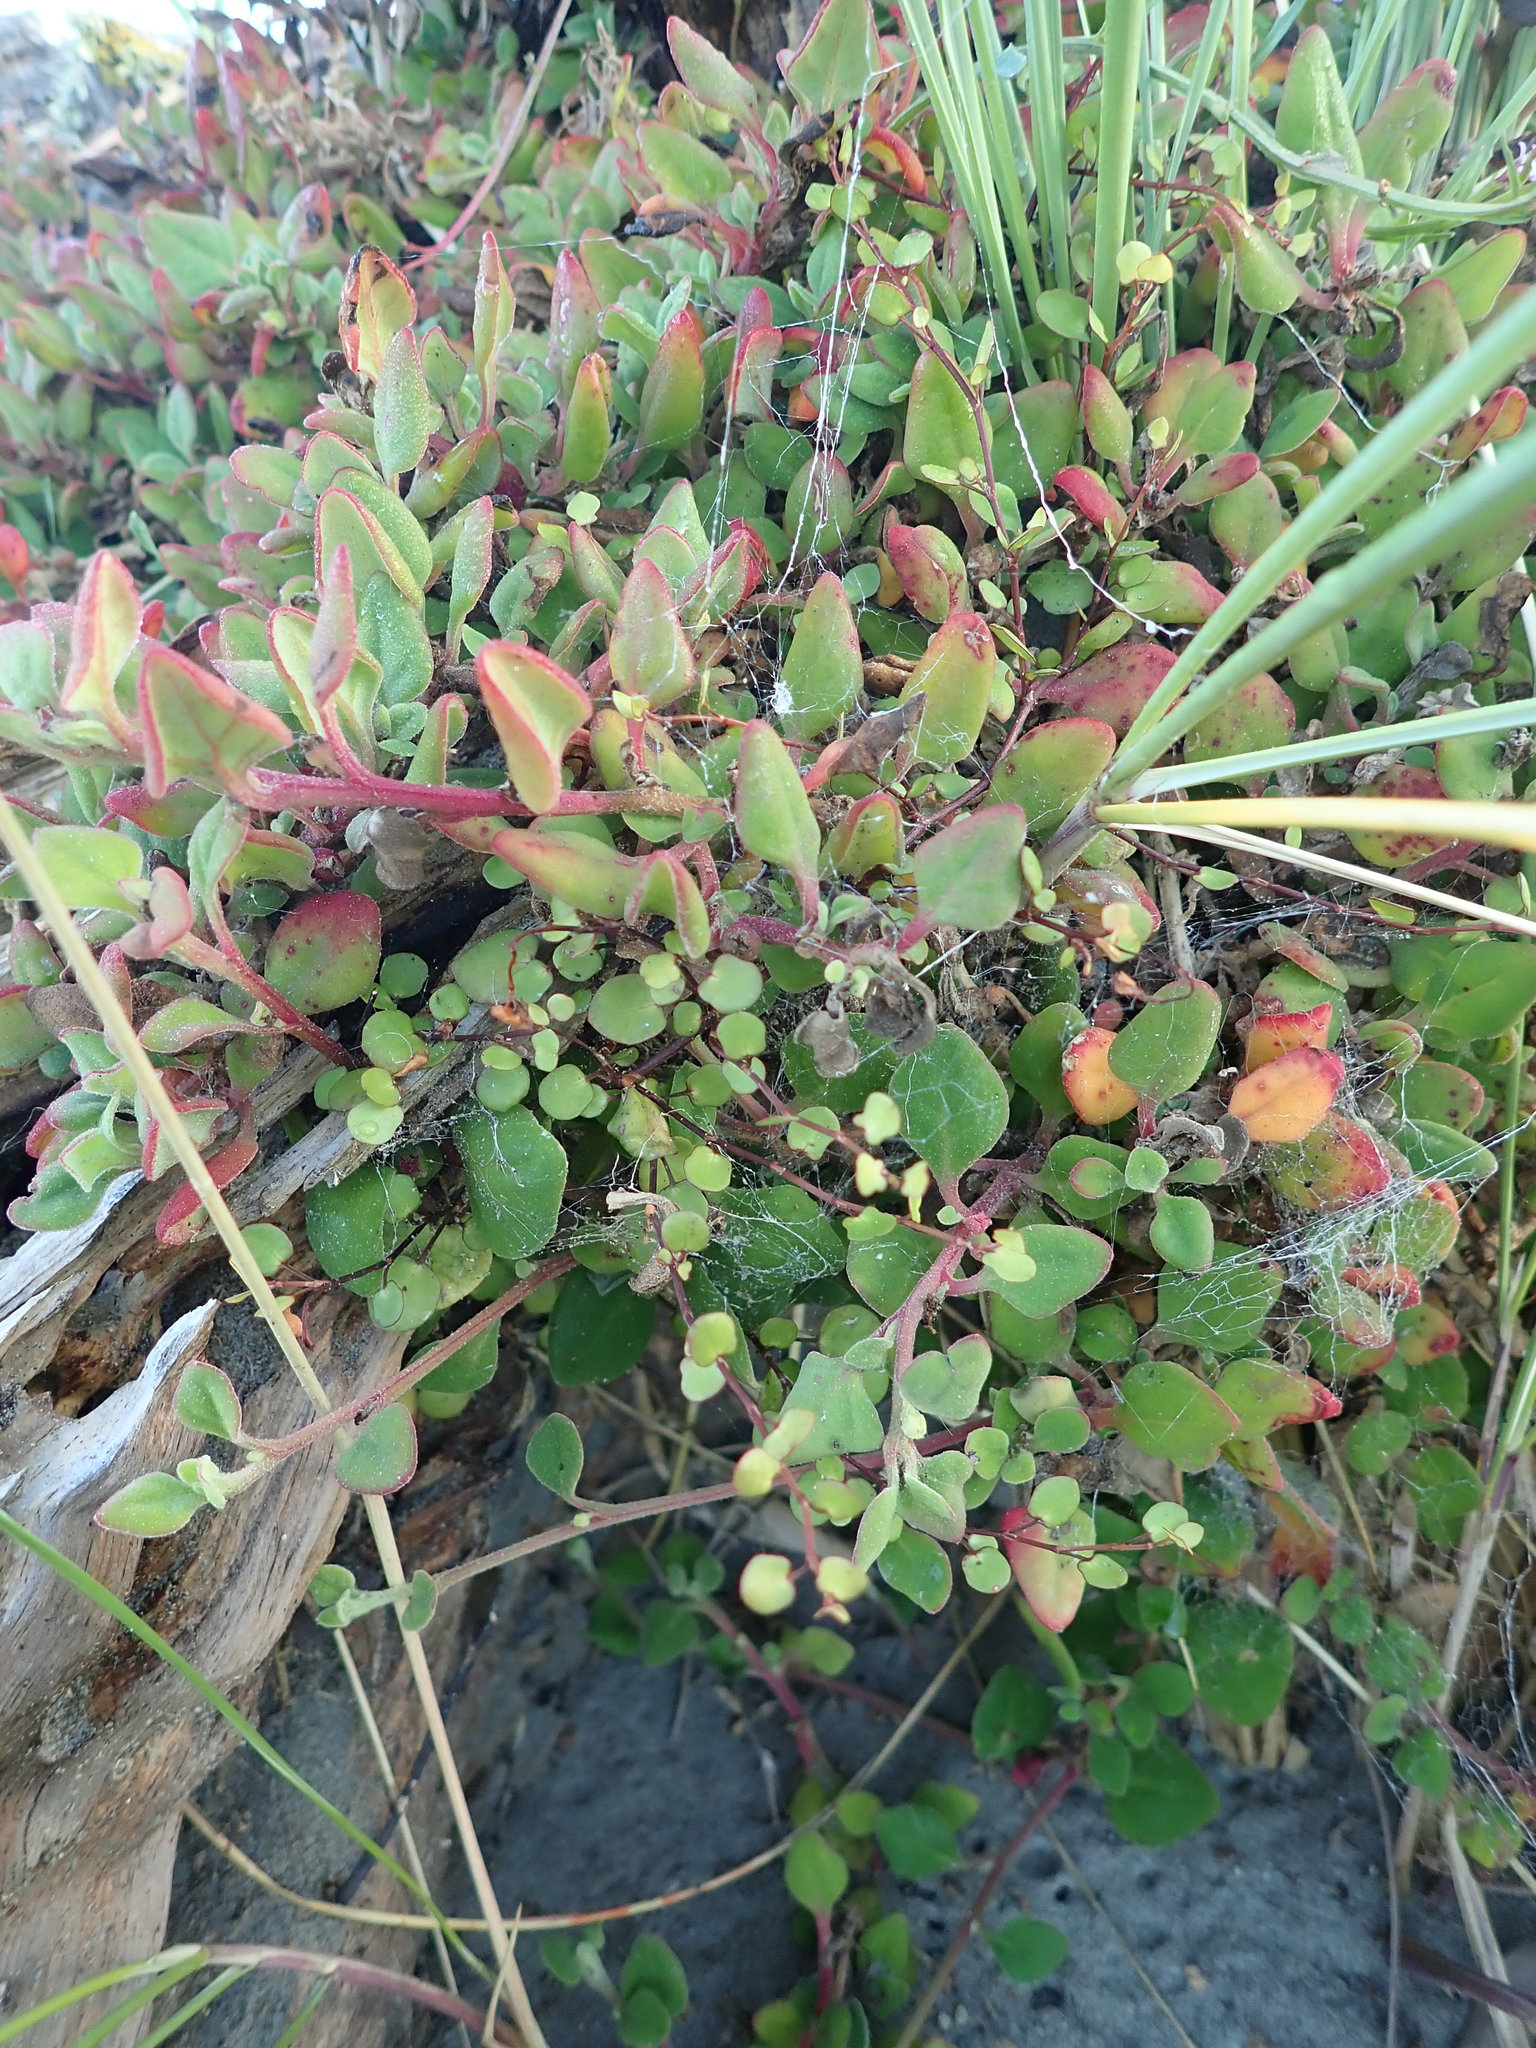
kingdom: Plantae
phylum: Tracheophyta
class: Magnoliopsida
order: Caryophyllales
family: Polygonaceae
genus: Muehlenbeckia
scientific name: Muehlenbeckia complexa
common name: Wireplant
